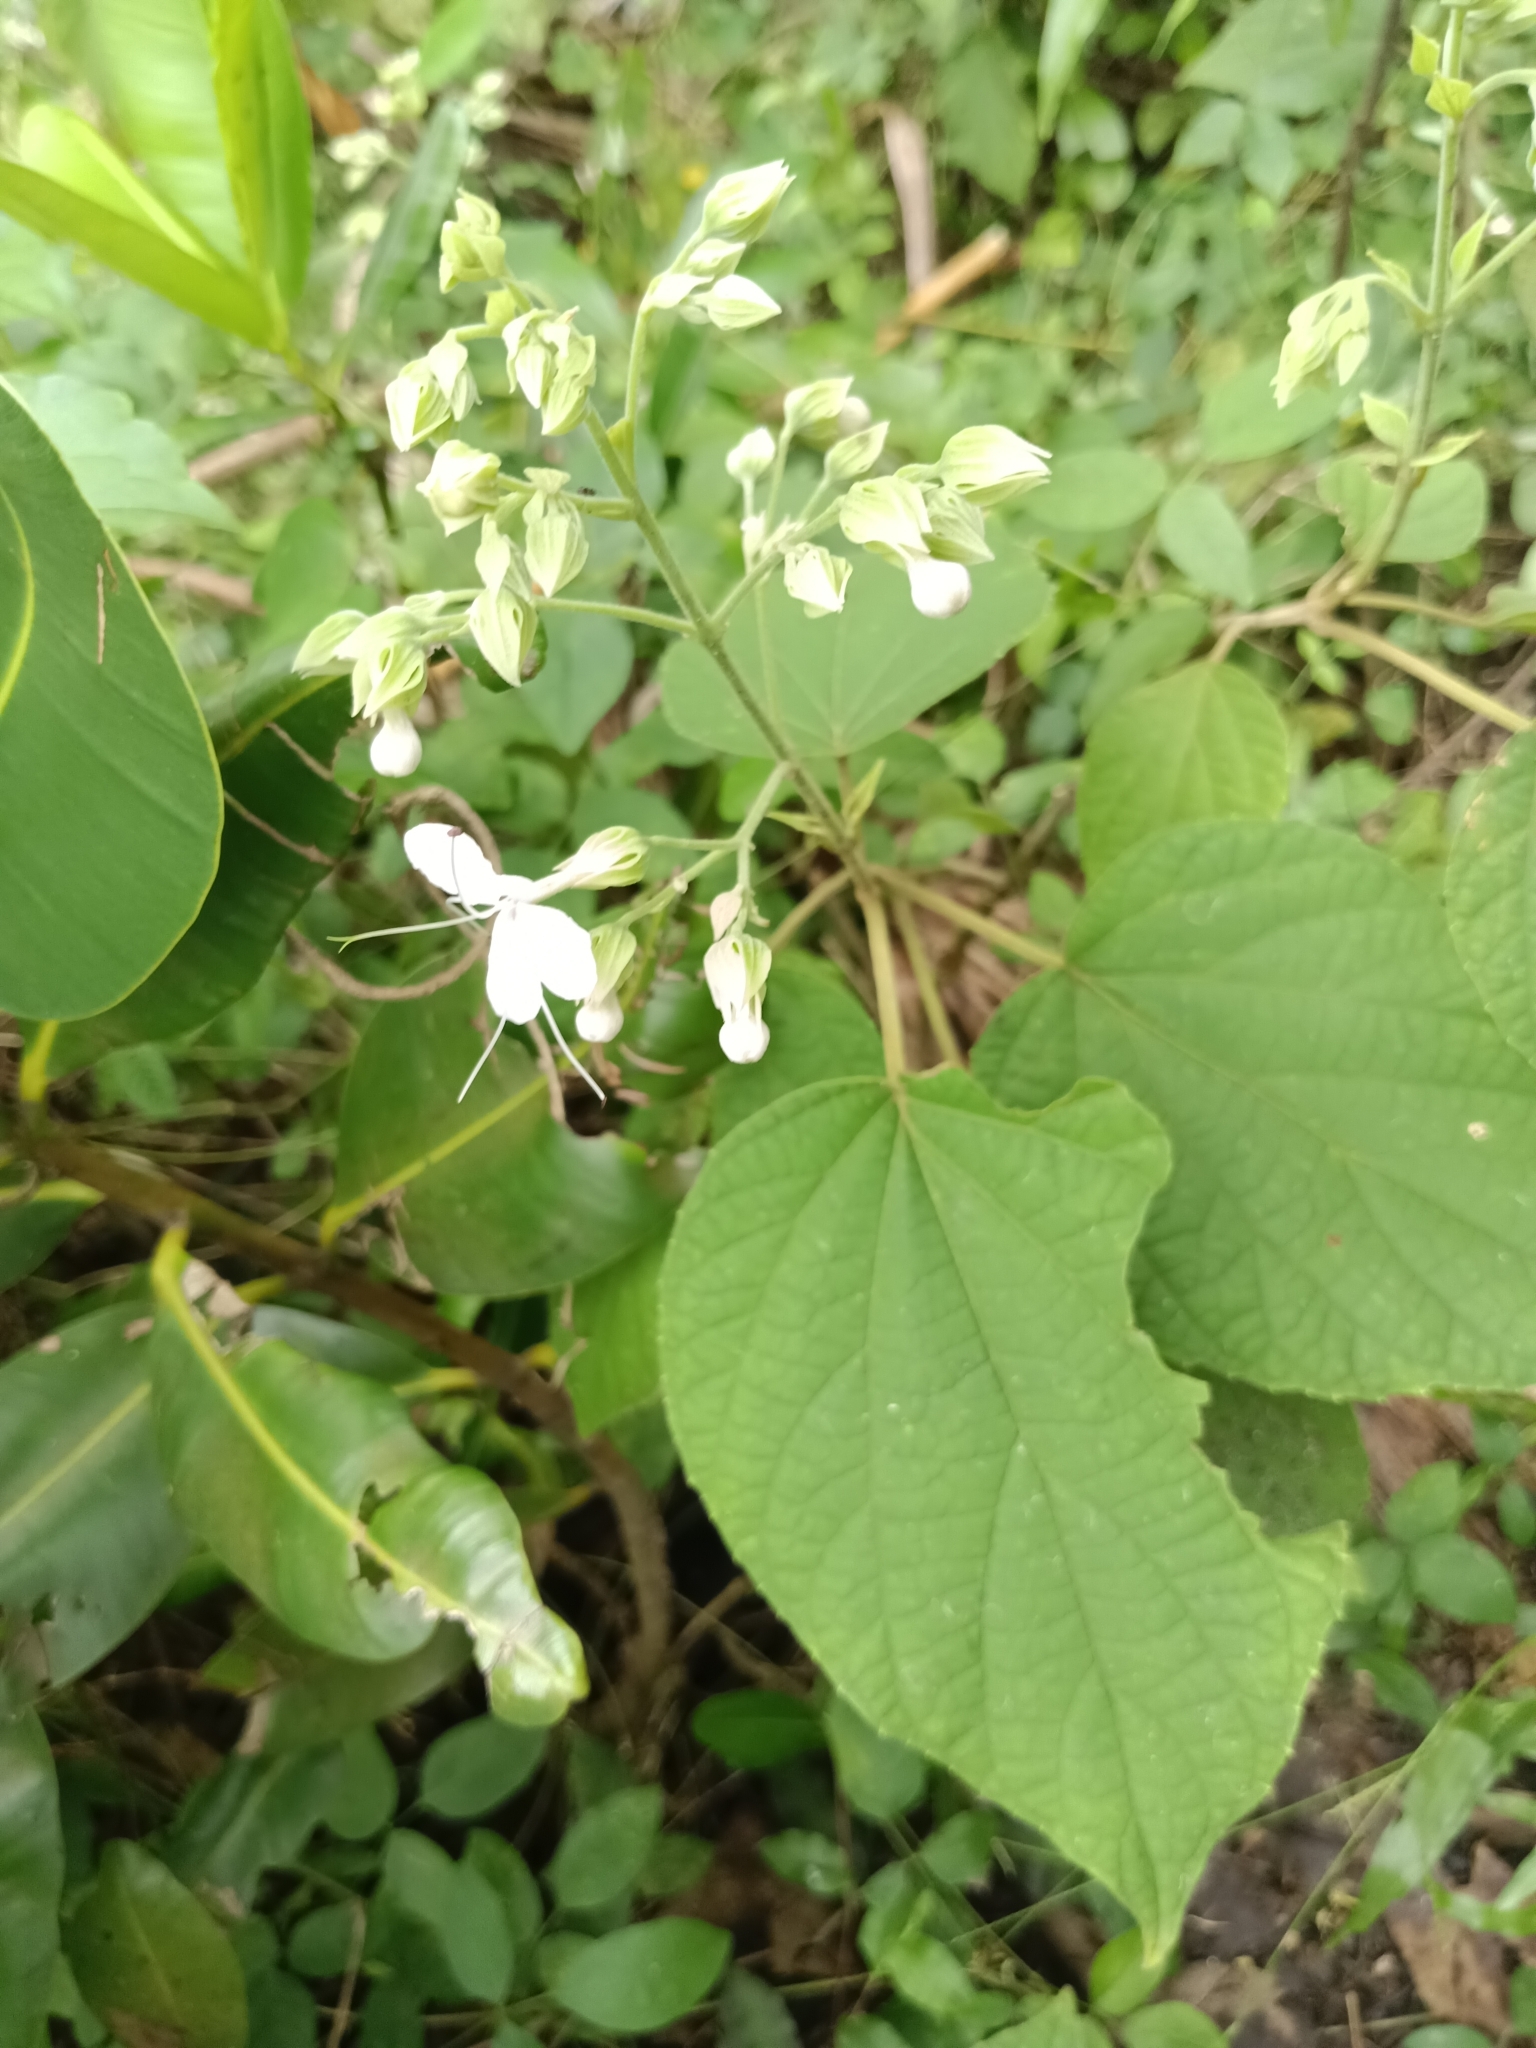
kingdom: Plantae
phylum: Tracheophyta
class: Magnoliopsida
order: Lamiales
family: Lamiaceae
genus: Clerodendrum
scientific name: Clerodendrum infortunatum
